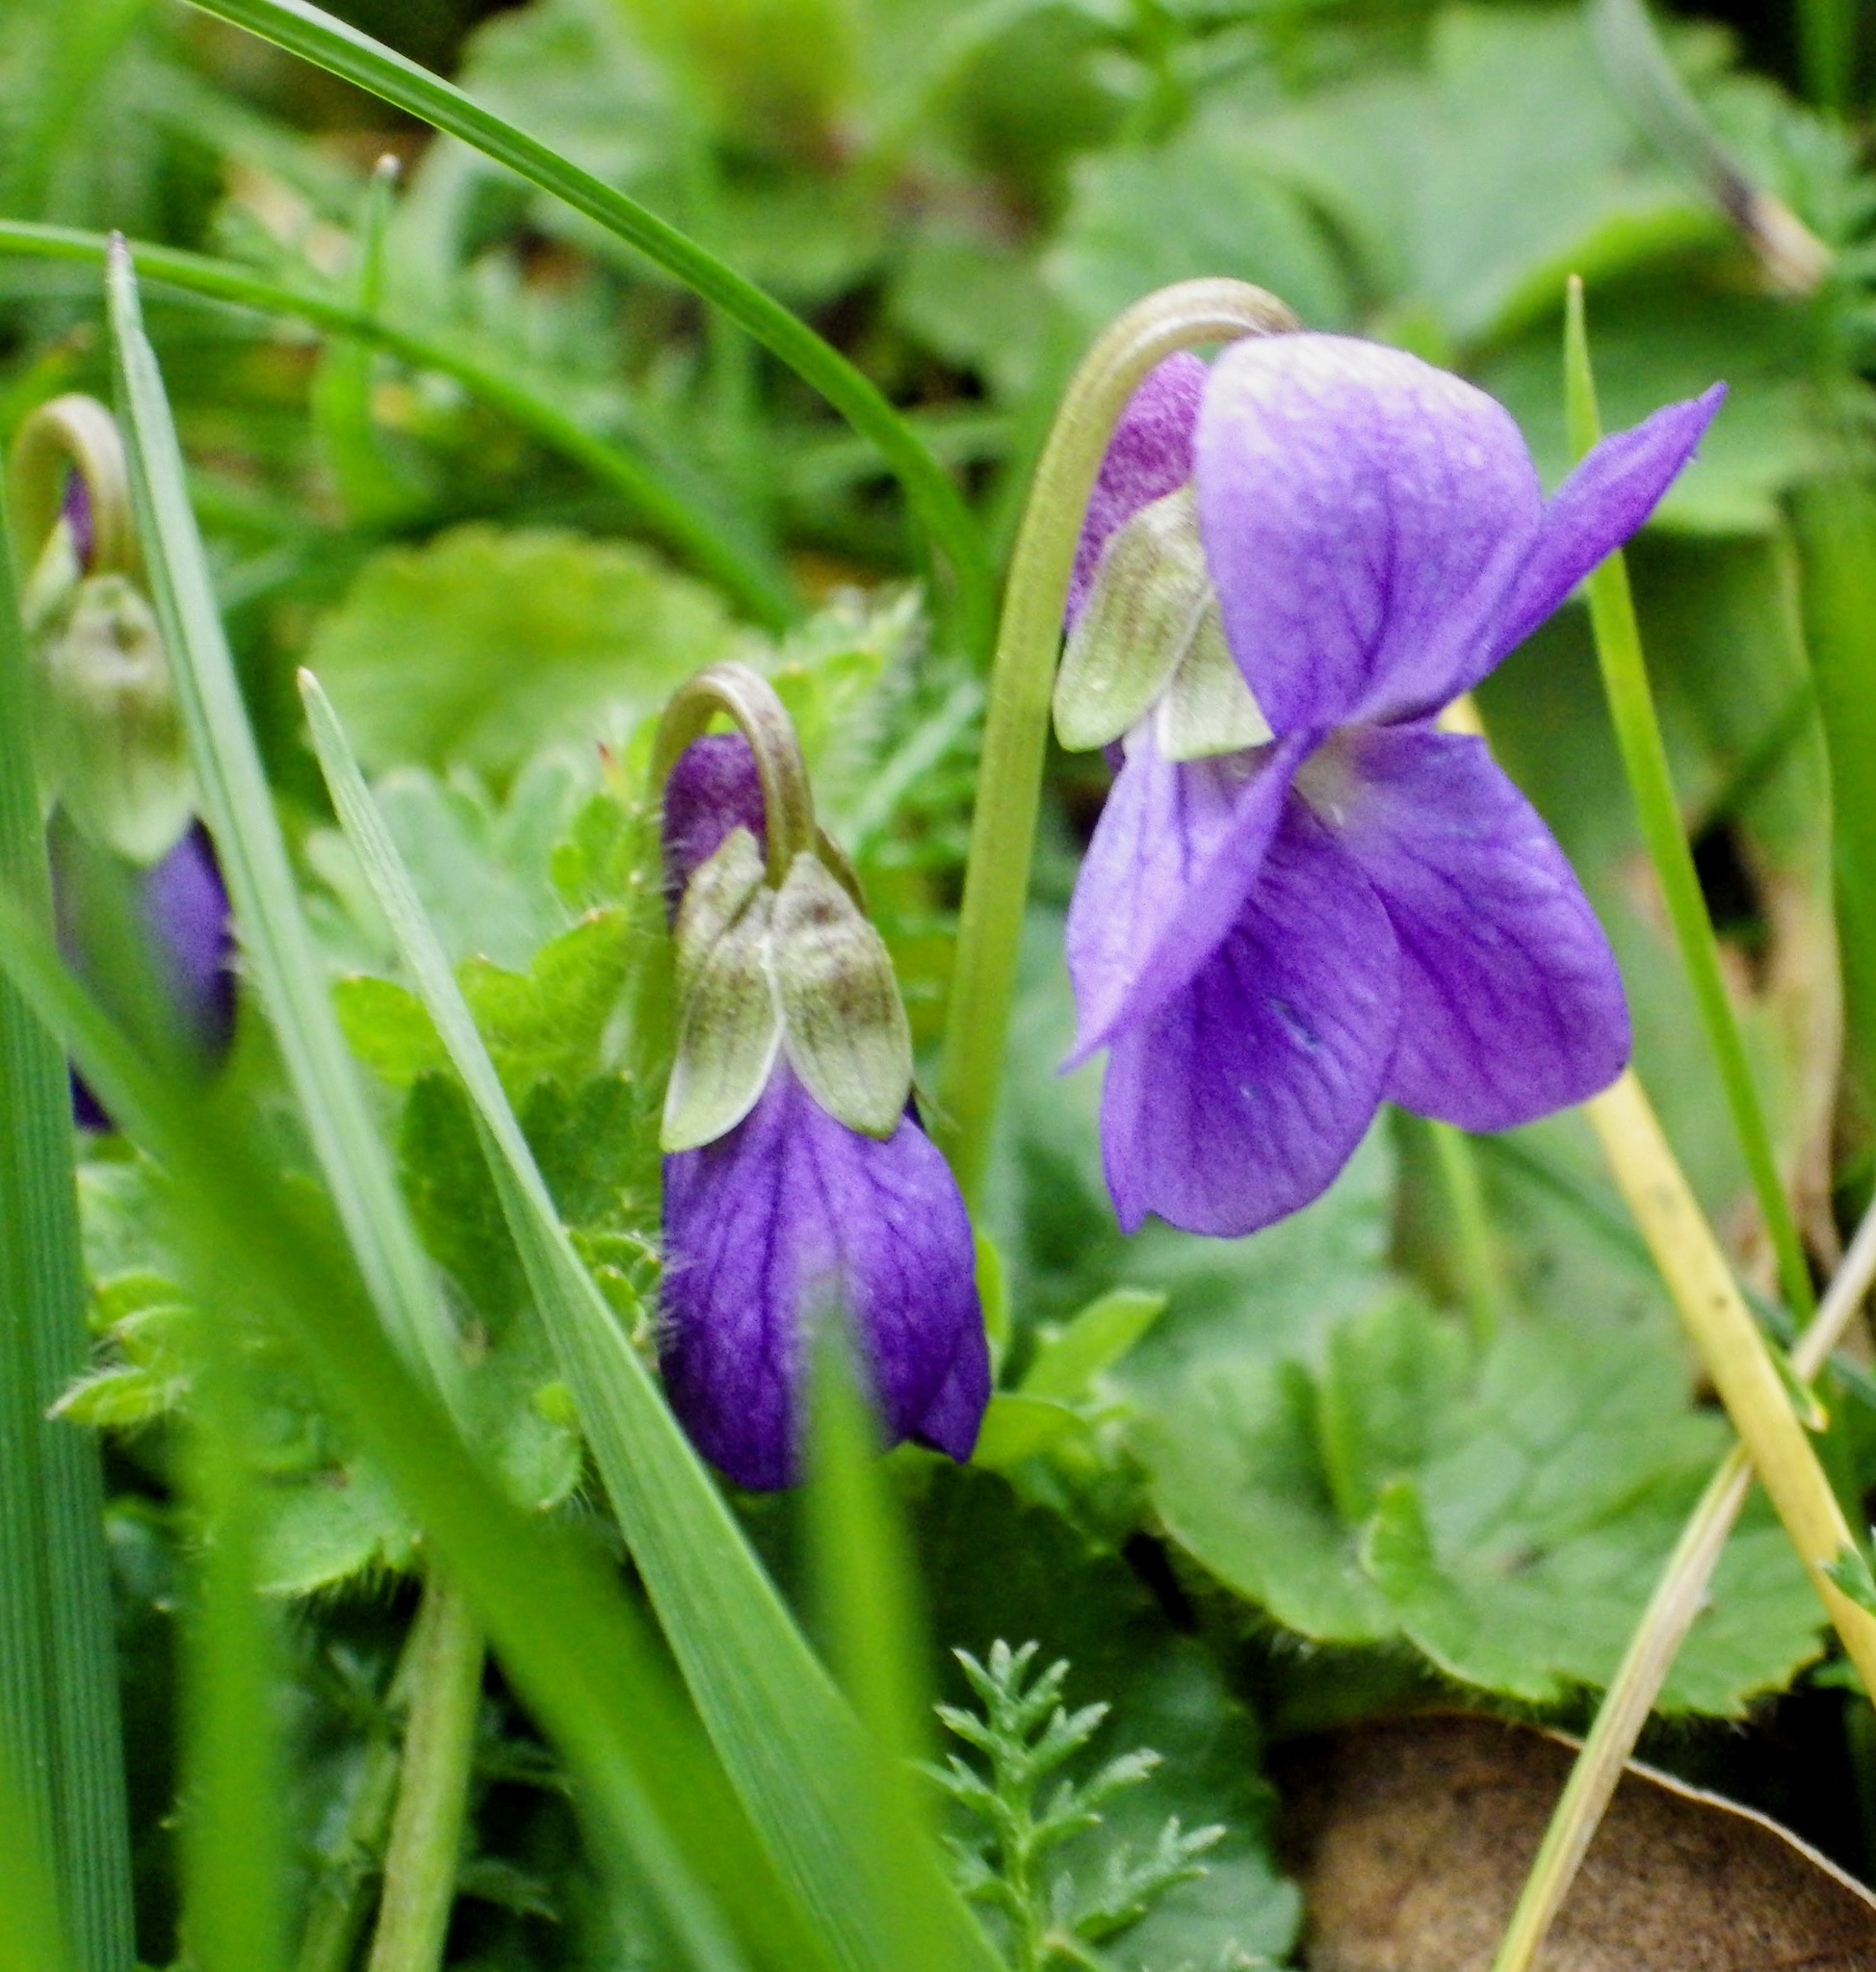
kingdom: Plantae
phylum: Tracheophyta
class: Magnoliopsida
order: Malpighiales
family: Violaceae
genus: Viola
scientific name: Viola odorata
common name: Sweet violet
